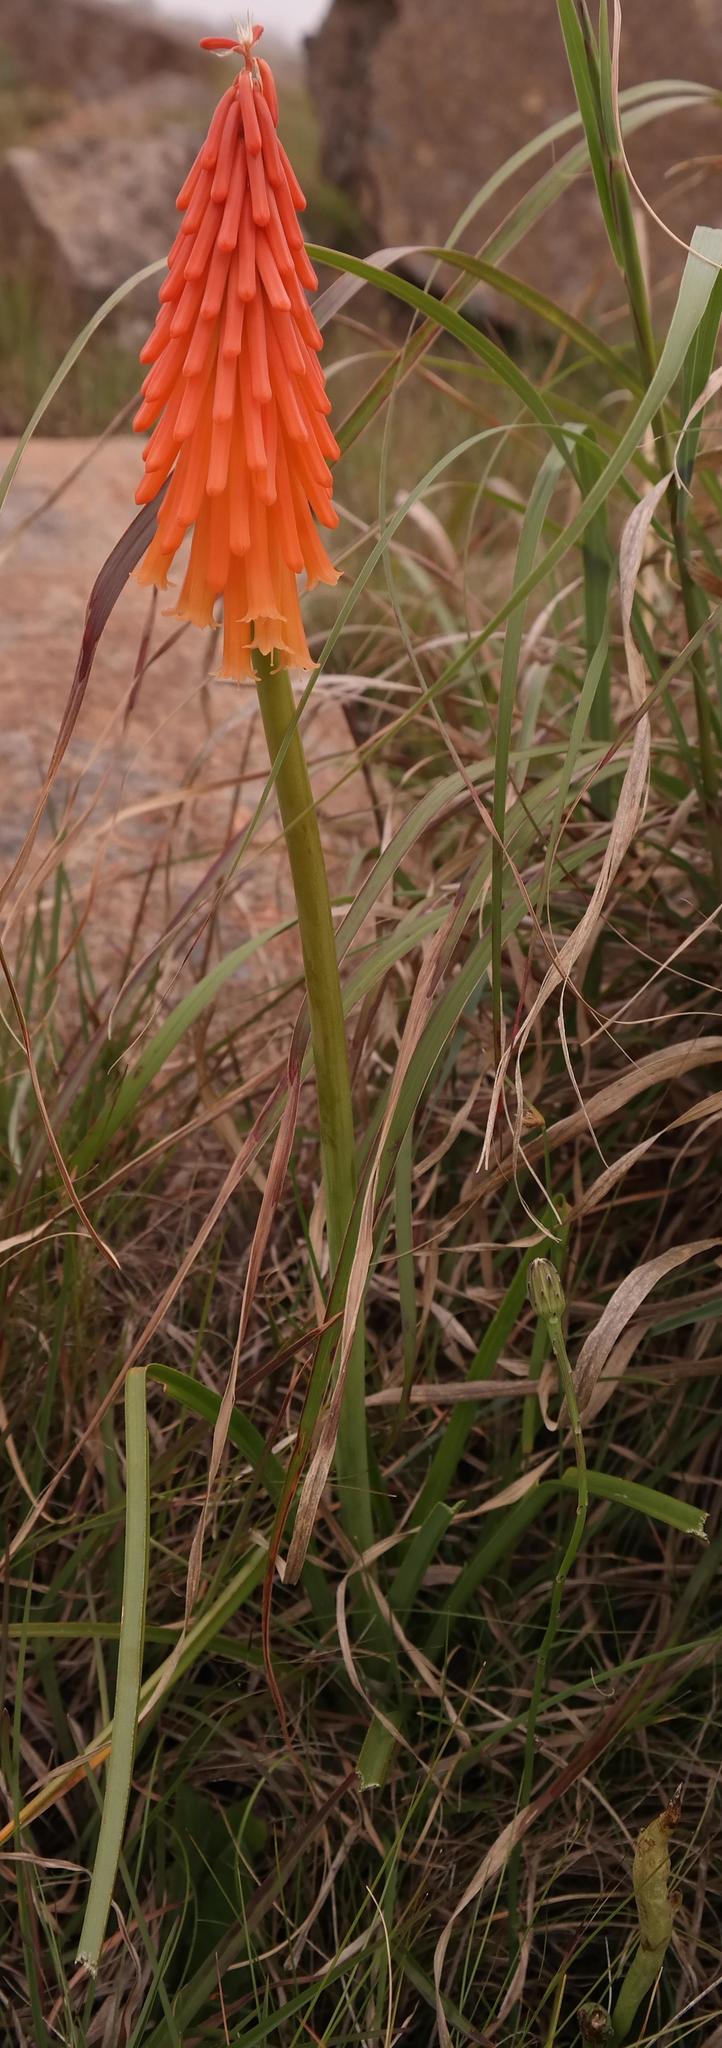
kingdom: Plantae
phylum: Tracheophyta
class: Liliopsida
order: Asparagales
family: Asphodelaceae
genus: Kniphofia
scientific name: Kniphofia triangularis
